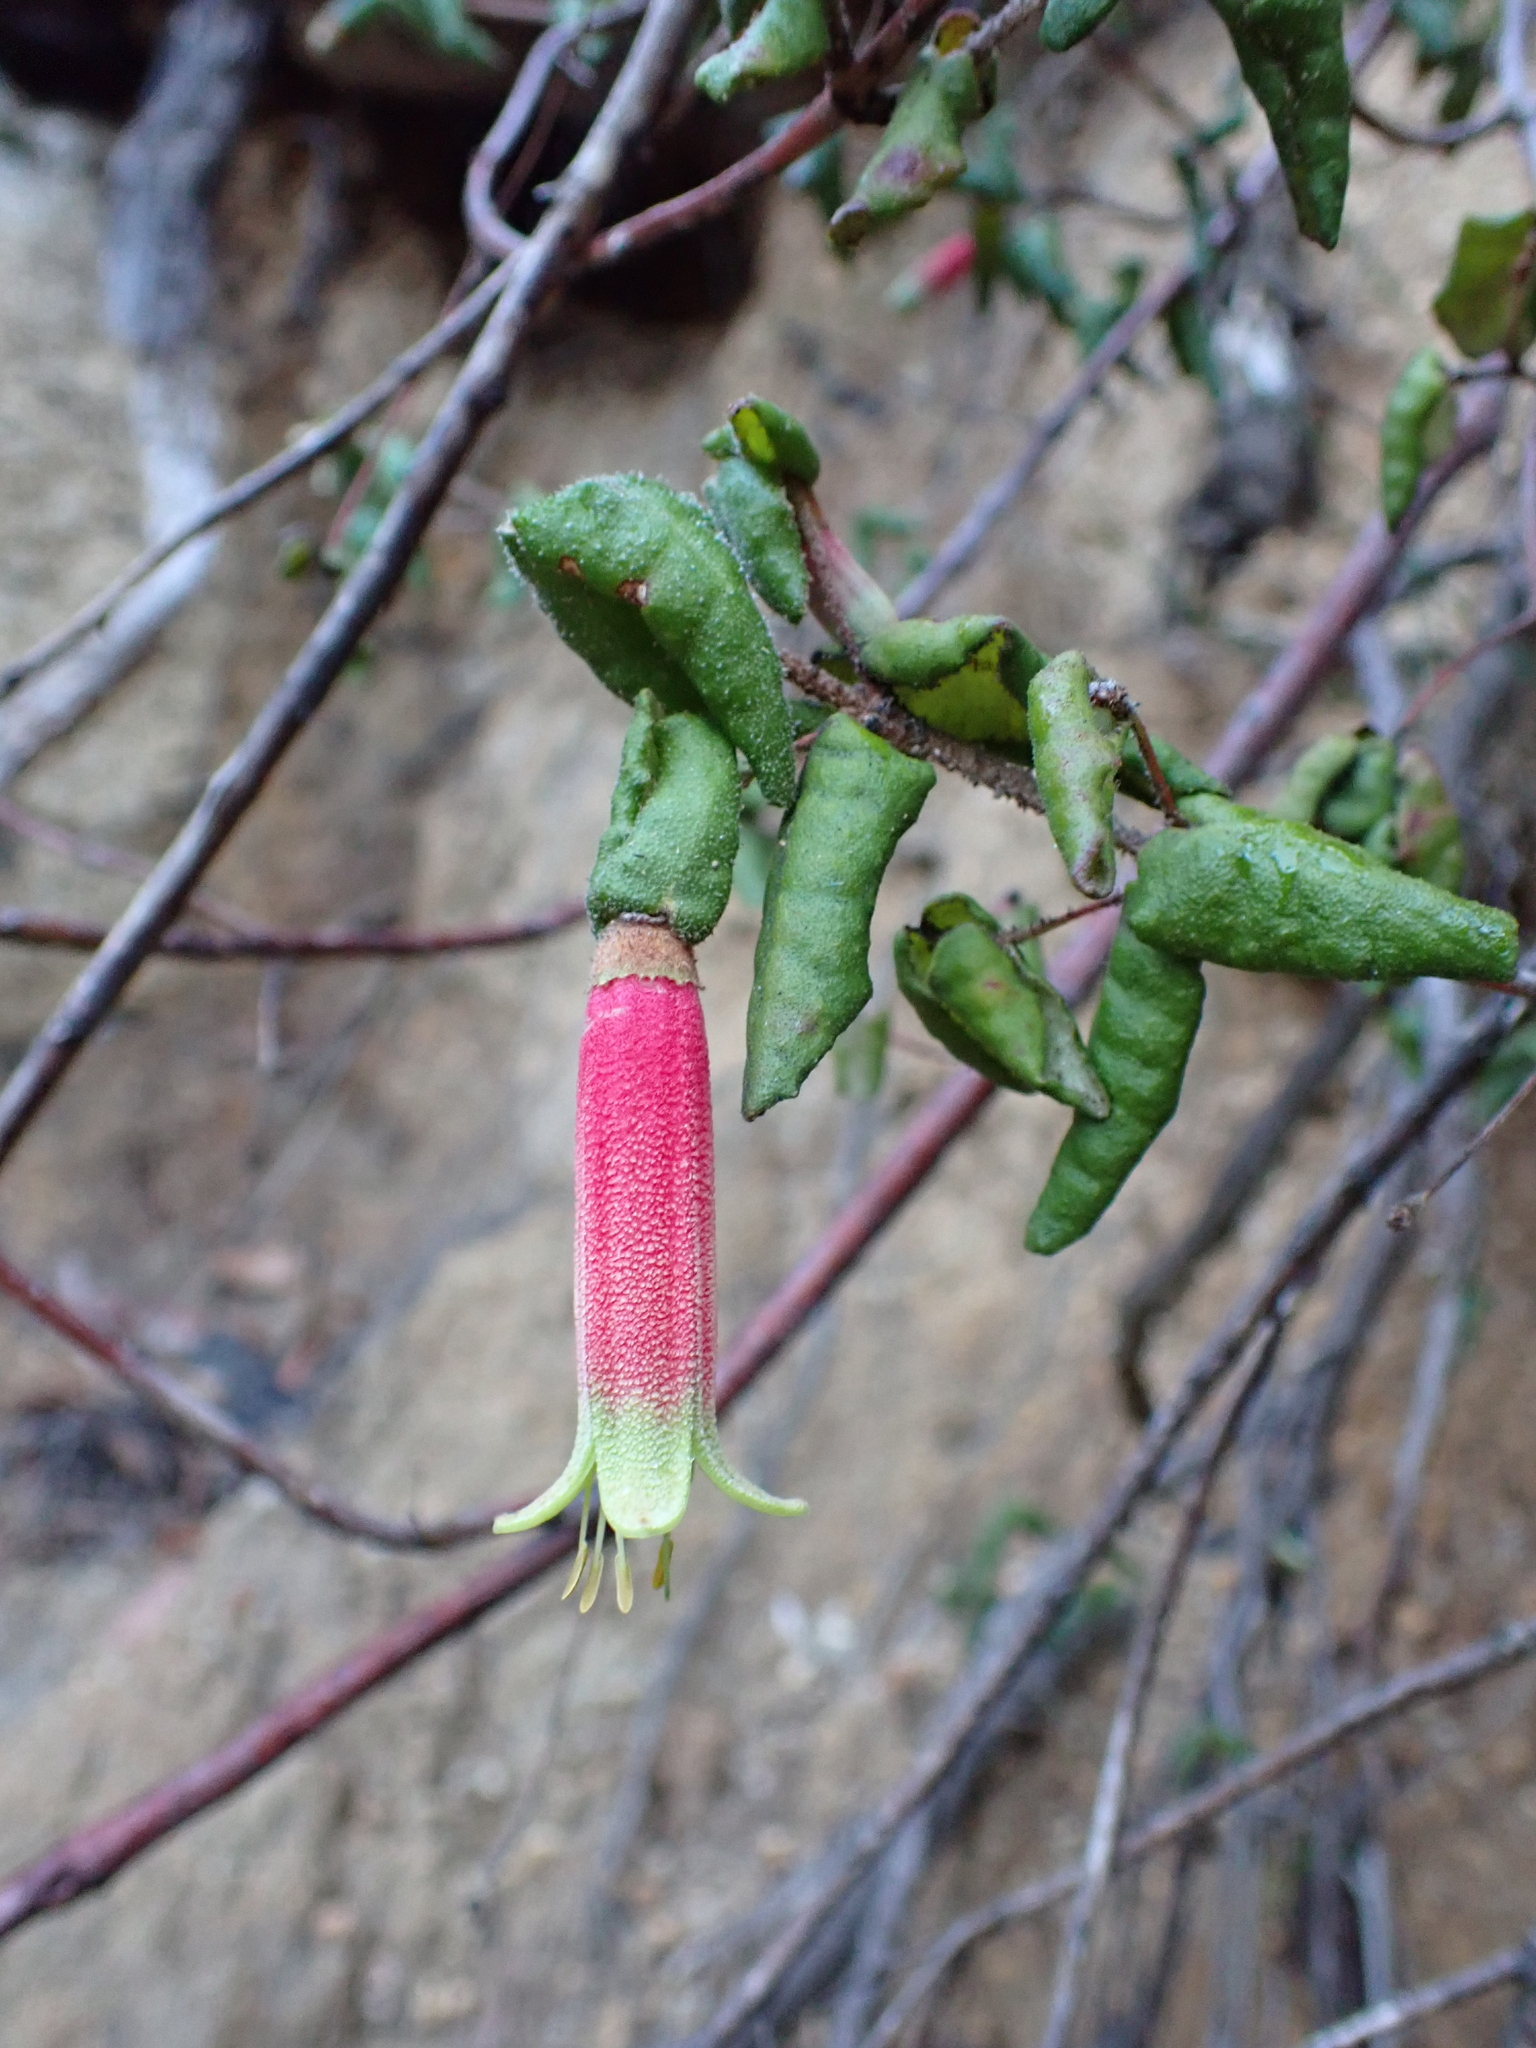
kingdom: Plantae
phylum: Tracheophyta
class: Magnoliopsida
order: Sapindales
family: Rutaceae
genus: Correa
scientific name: Correa reflexa
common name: Common correa
